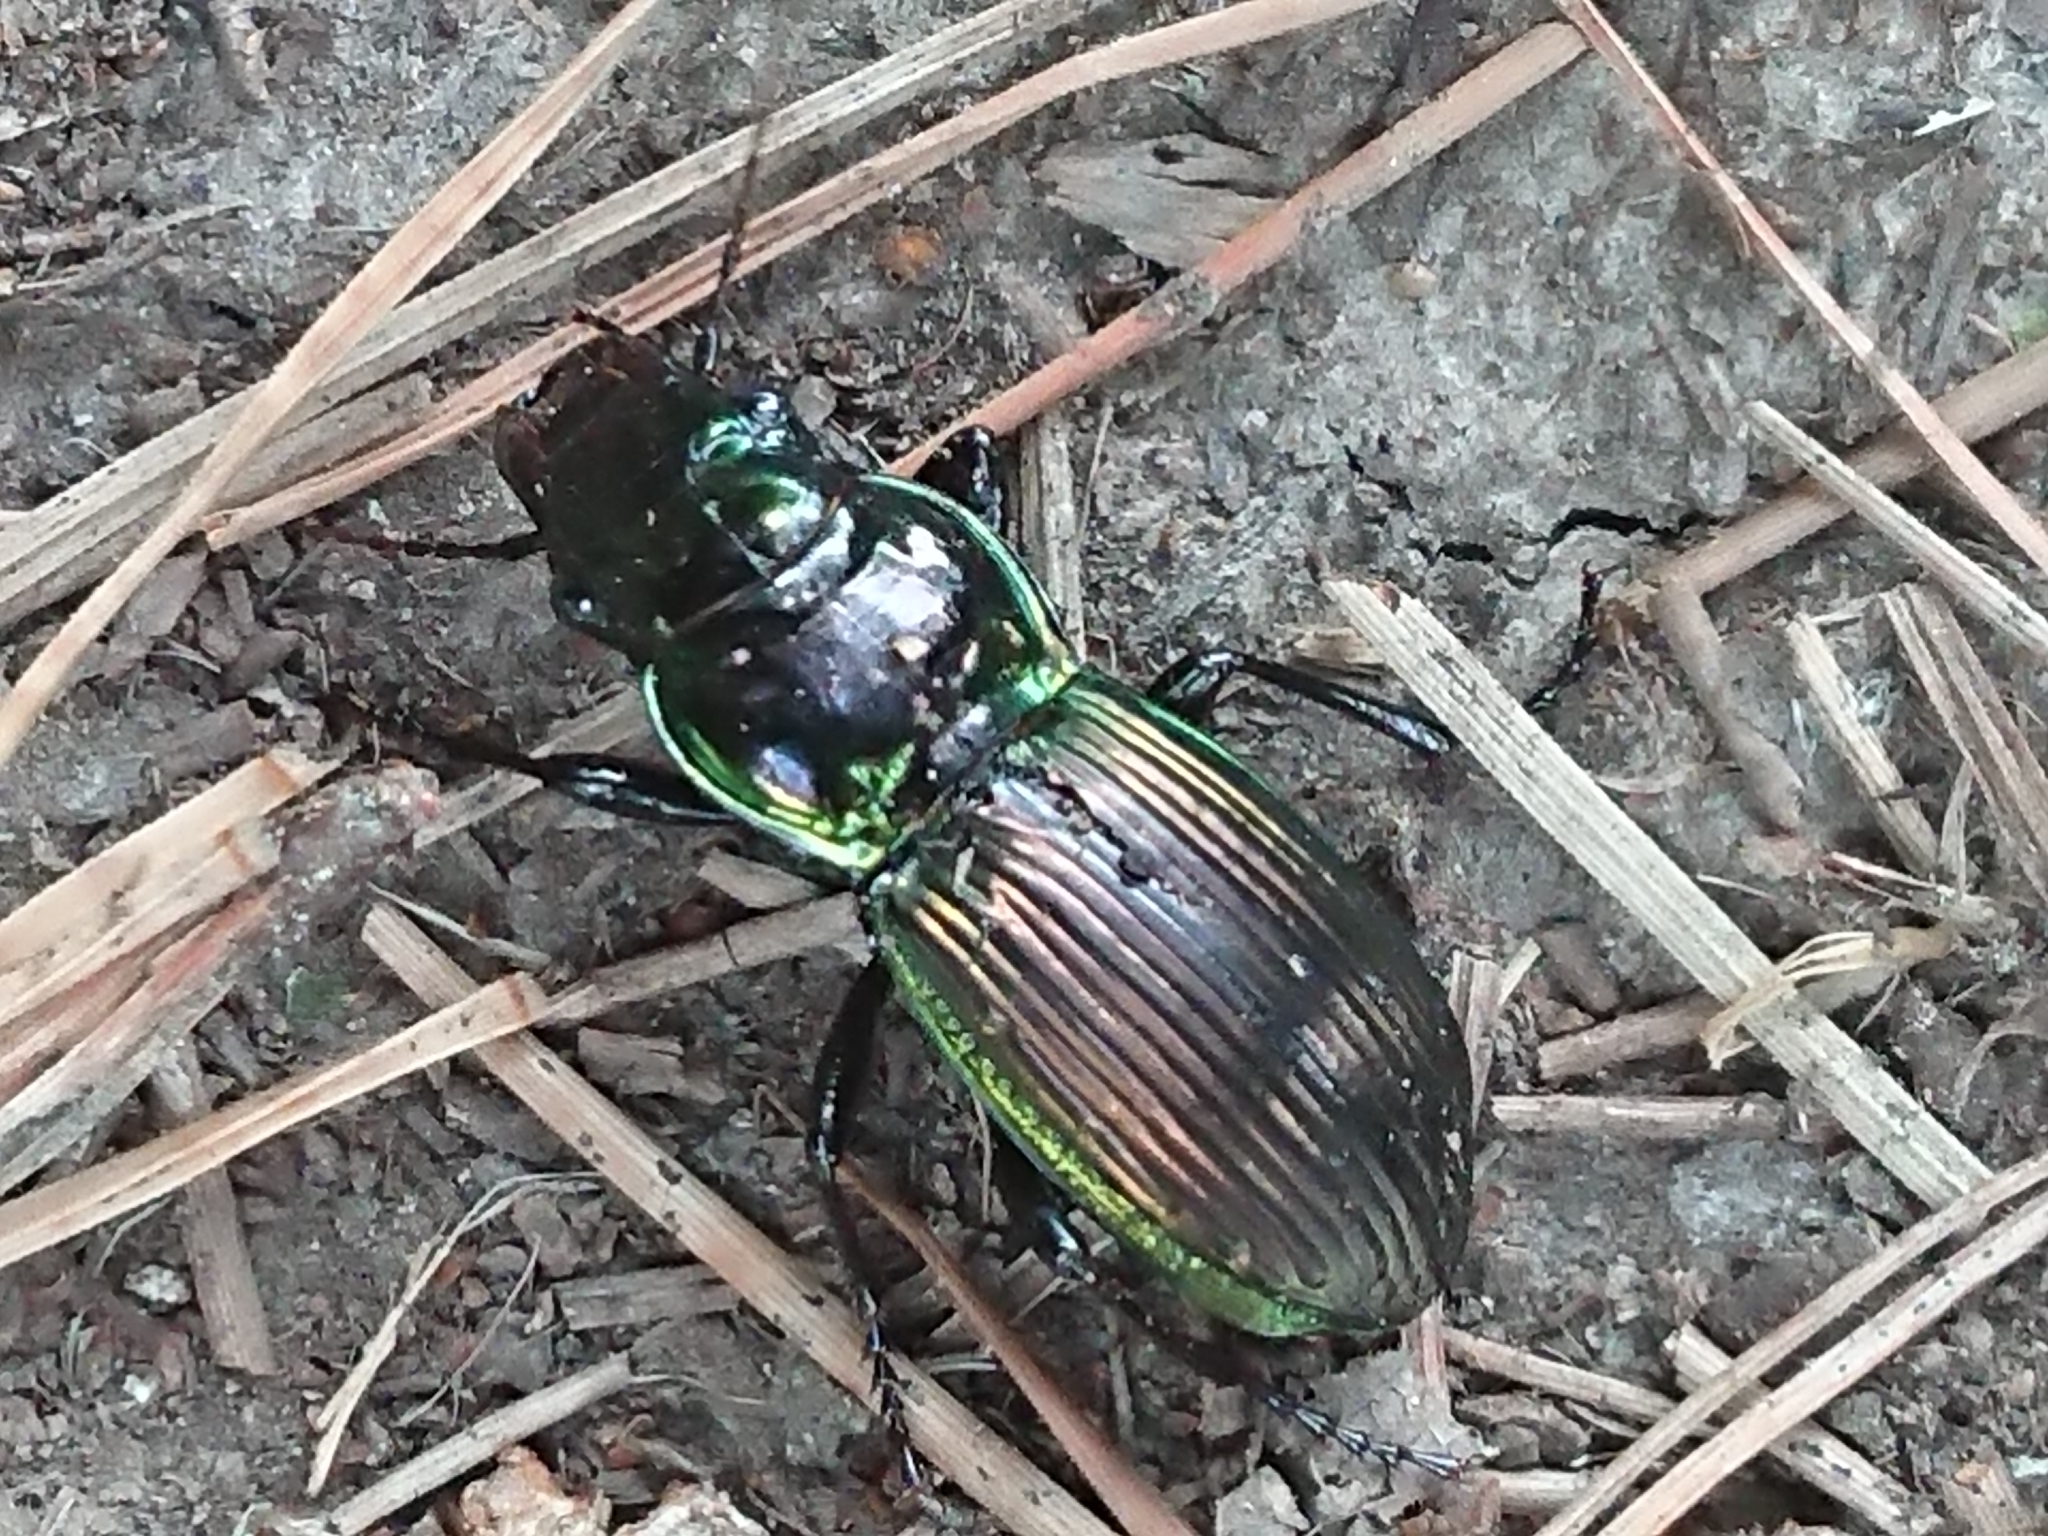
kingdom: Animalia
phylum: Arthropoda
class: Insecta
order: Coleoptera
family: Carabidae
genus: Megadromus
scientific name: Megadromus antarcticus
